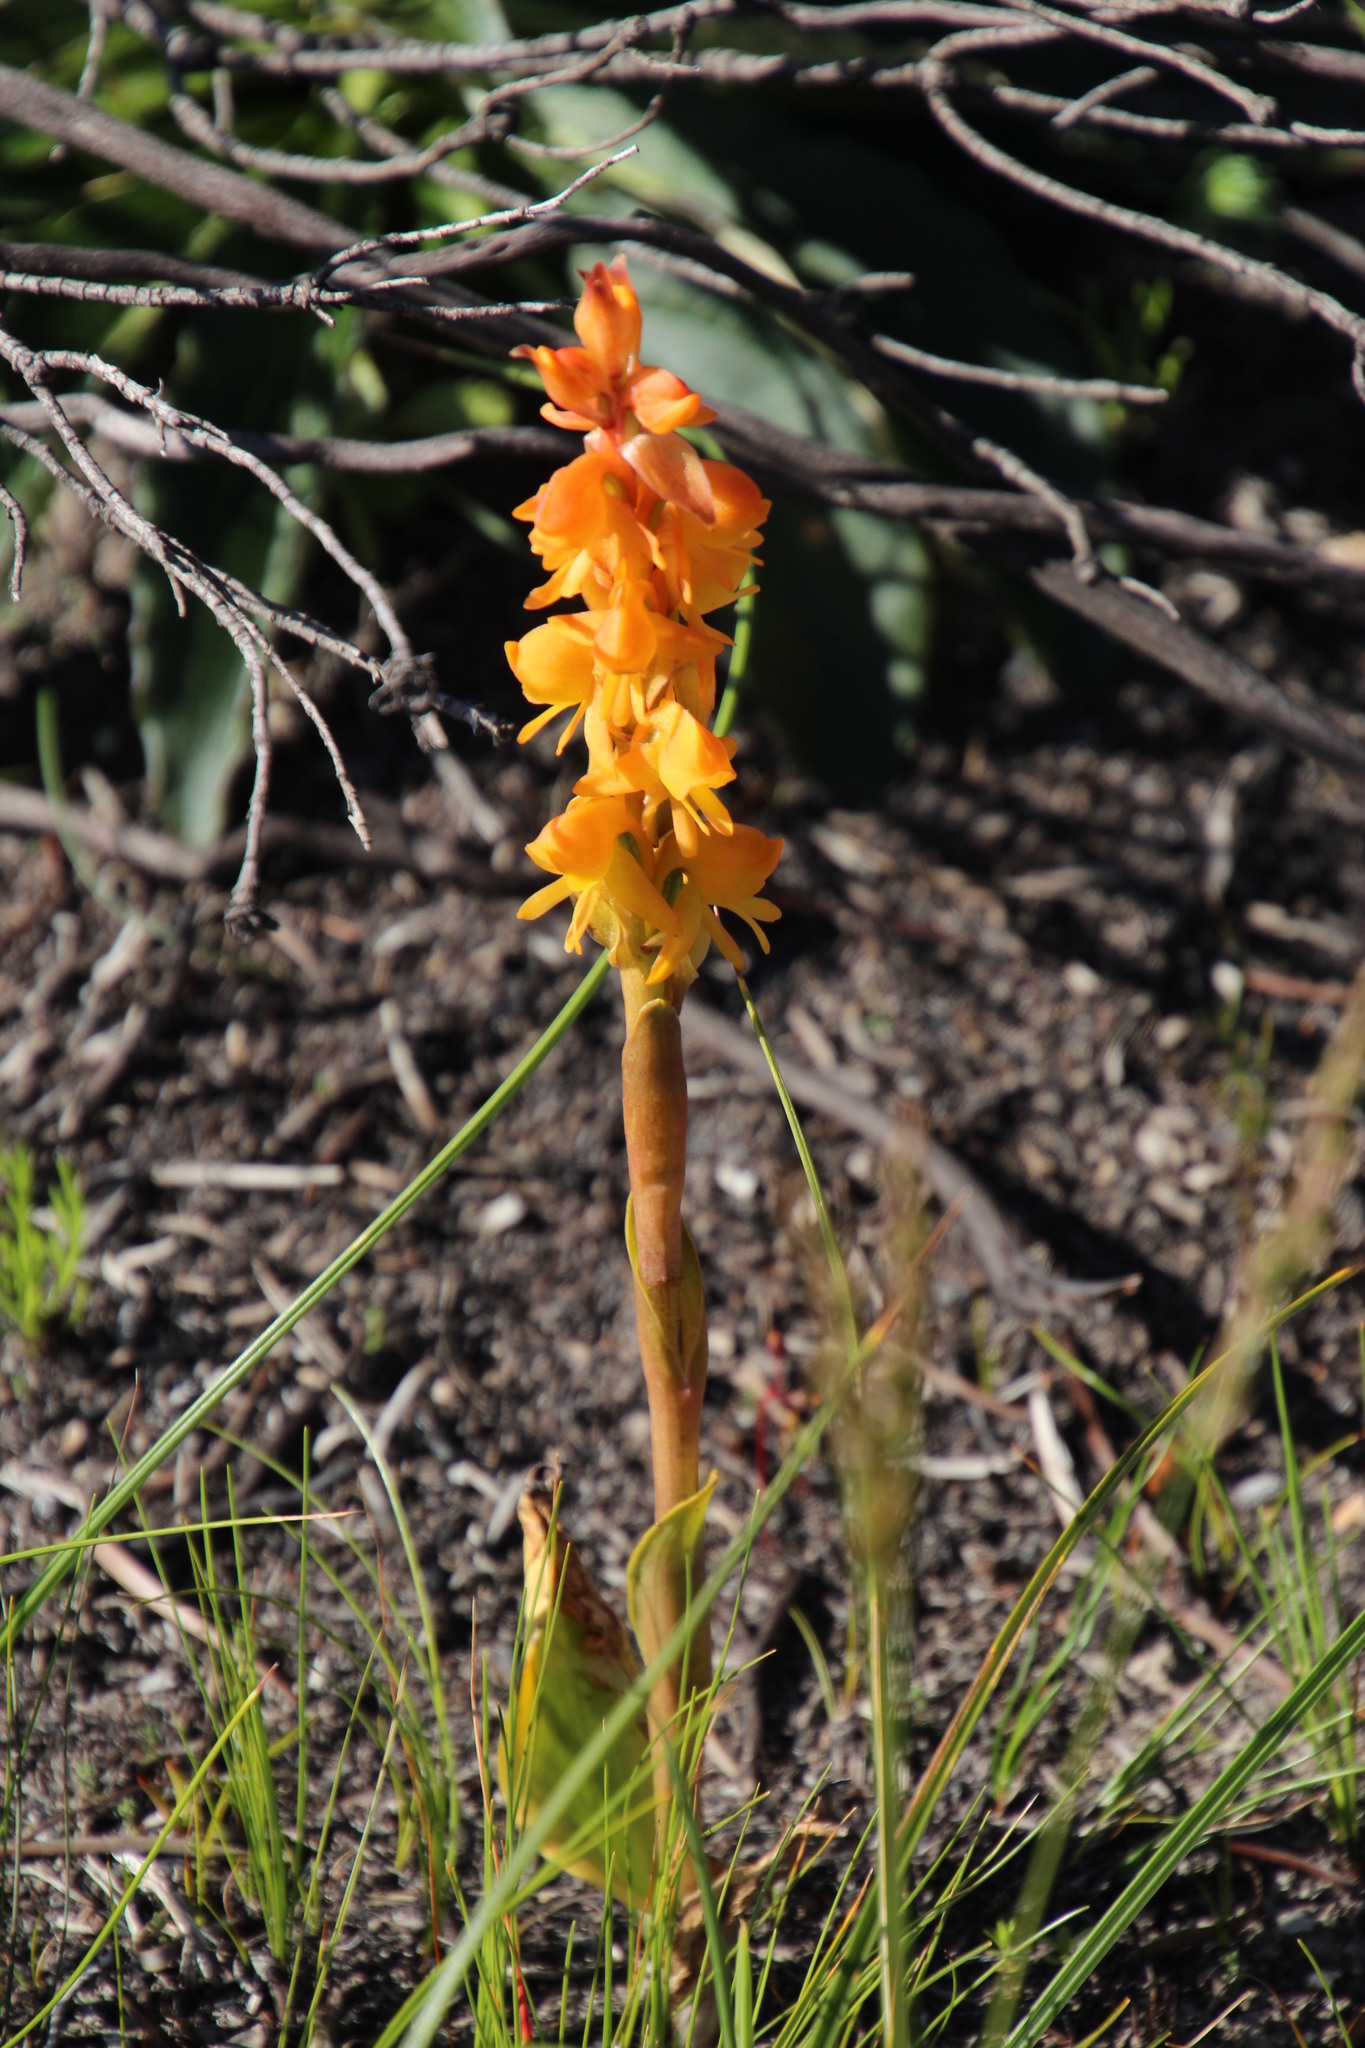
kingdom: Plantae
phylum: Tracheophyta
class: Liliopsida
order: Asparagales
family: Orchidaceae
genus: Satyrium
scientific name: Satyrium coriifolium
